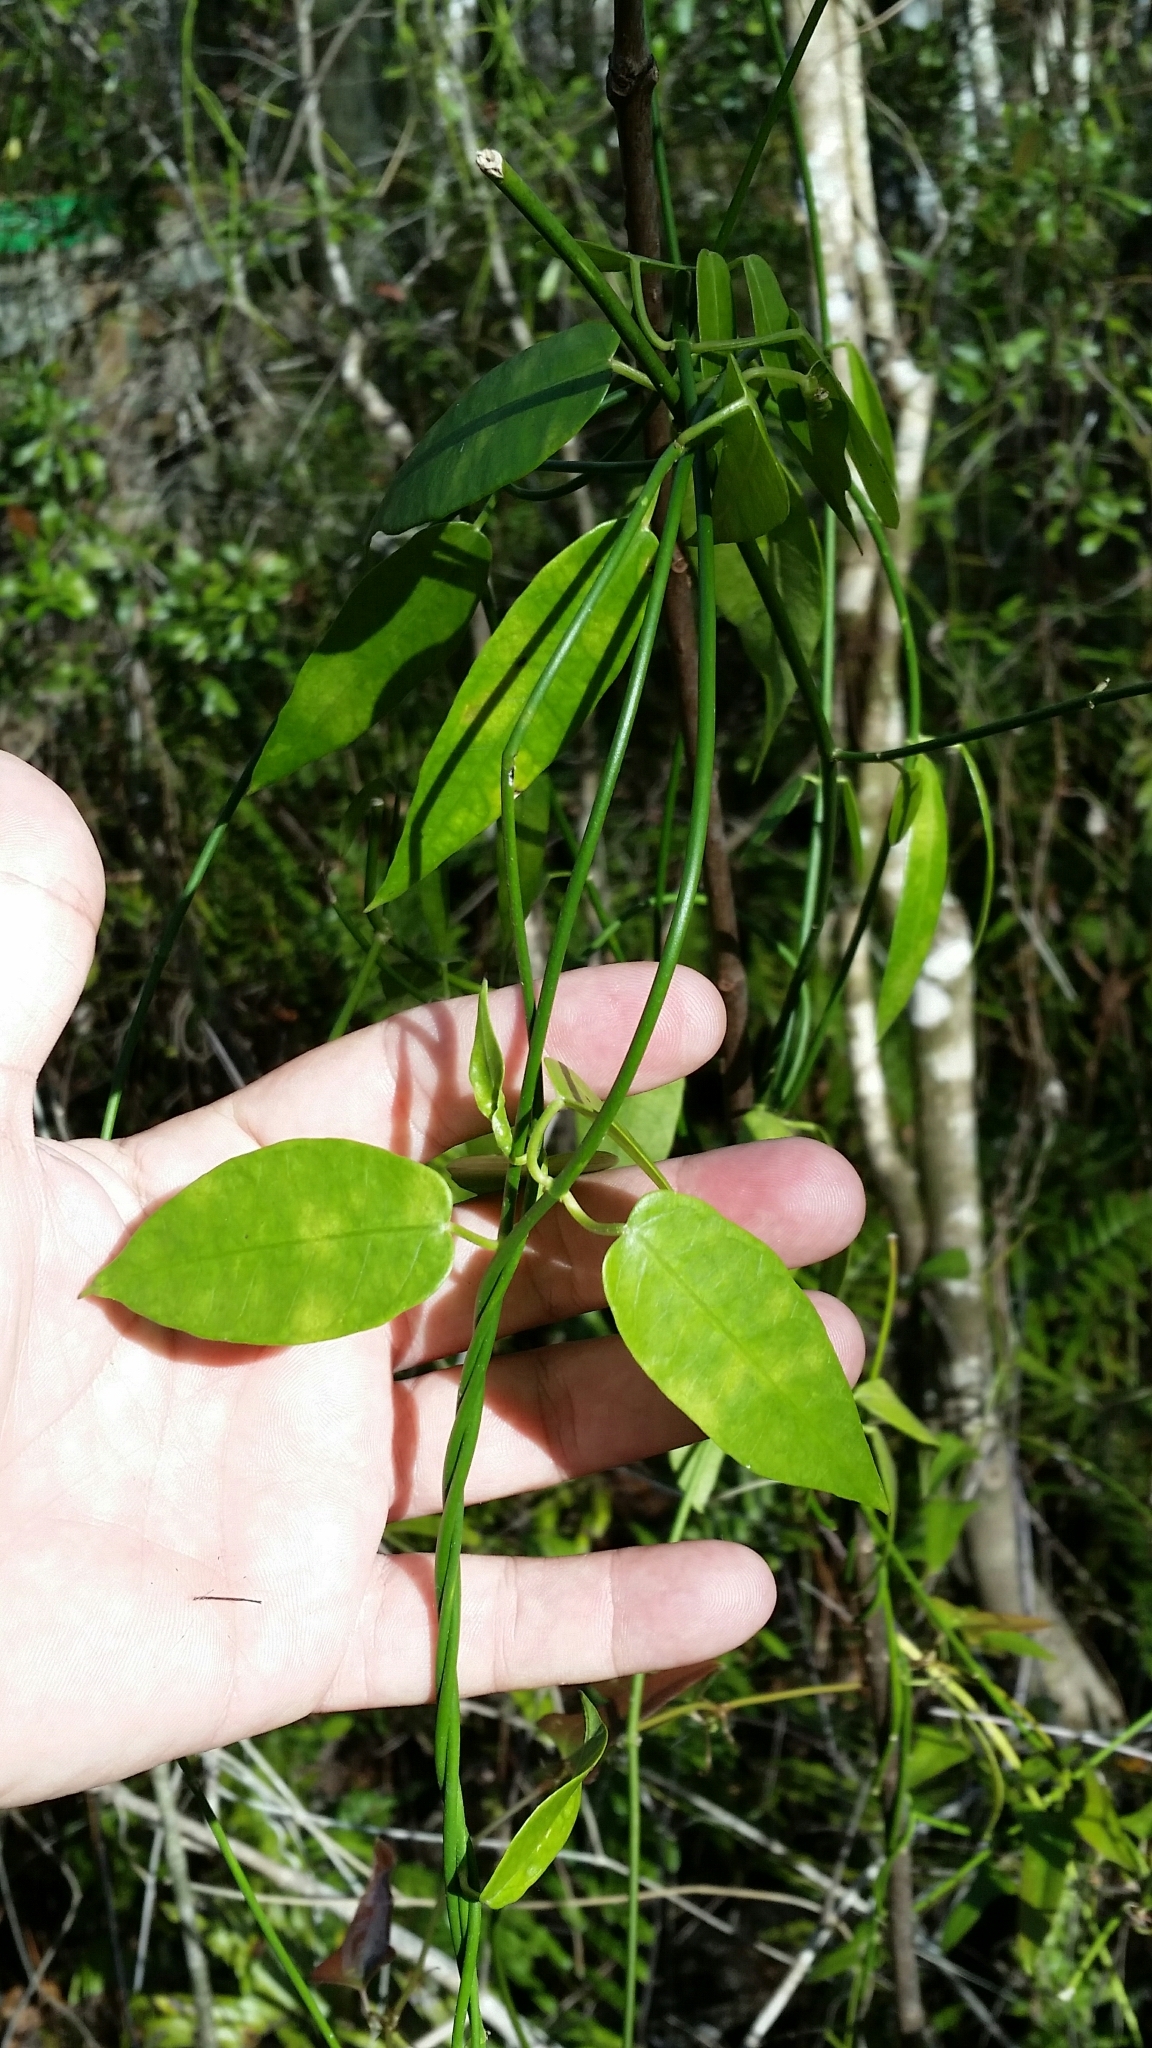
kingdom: Plantae
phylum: Tracheophyta
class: Magnoliopsida
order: Gentianales
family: Apocynaceae
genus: Funastrum
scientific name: Funastrum clausum
